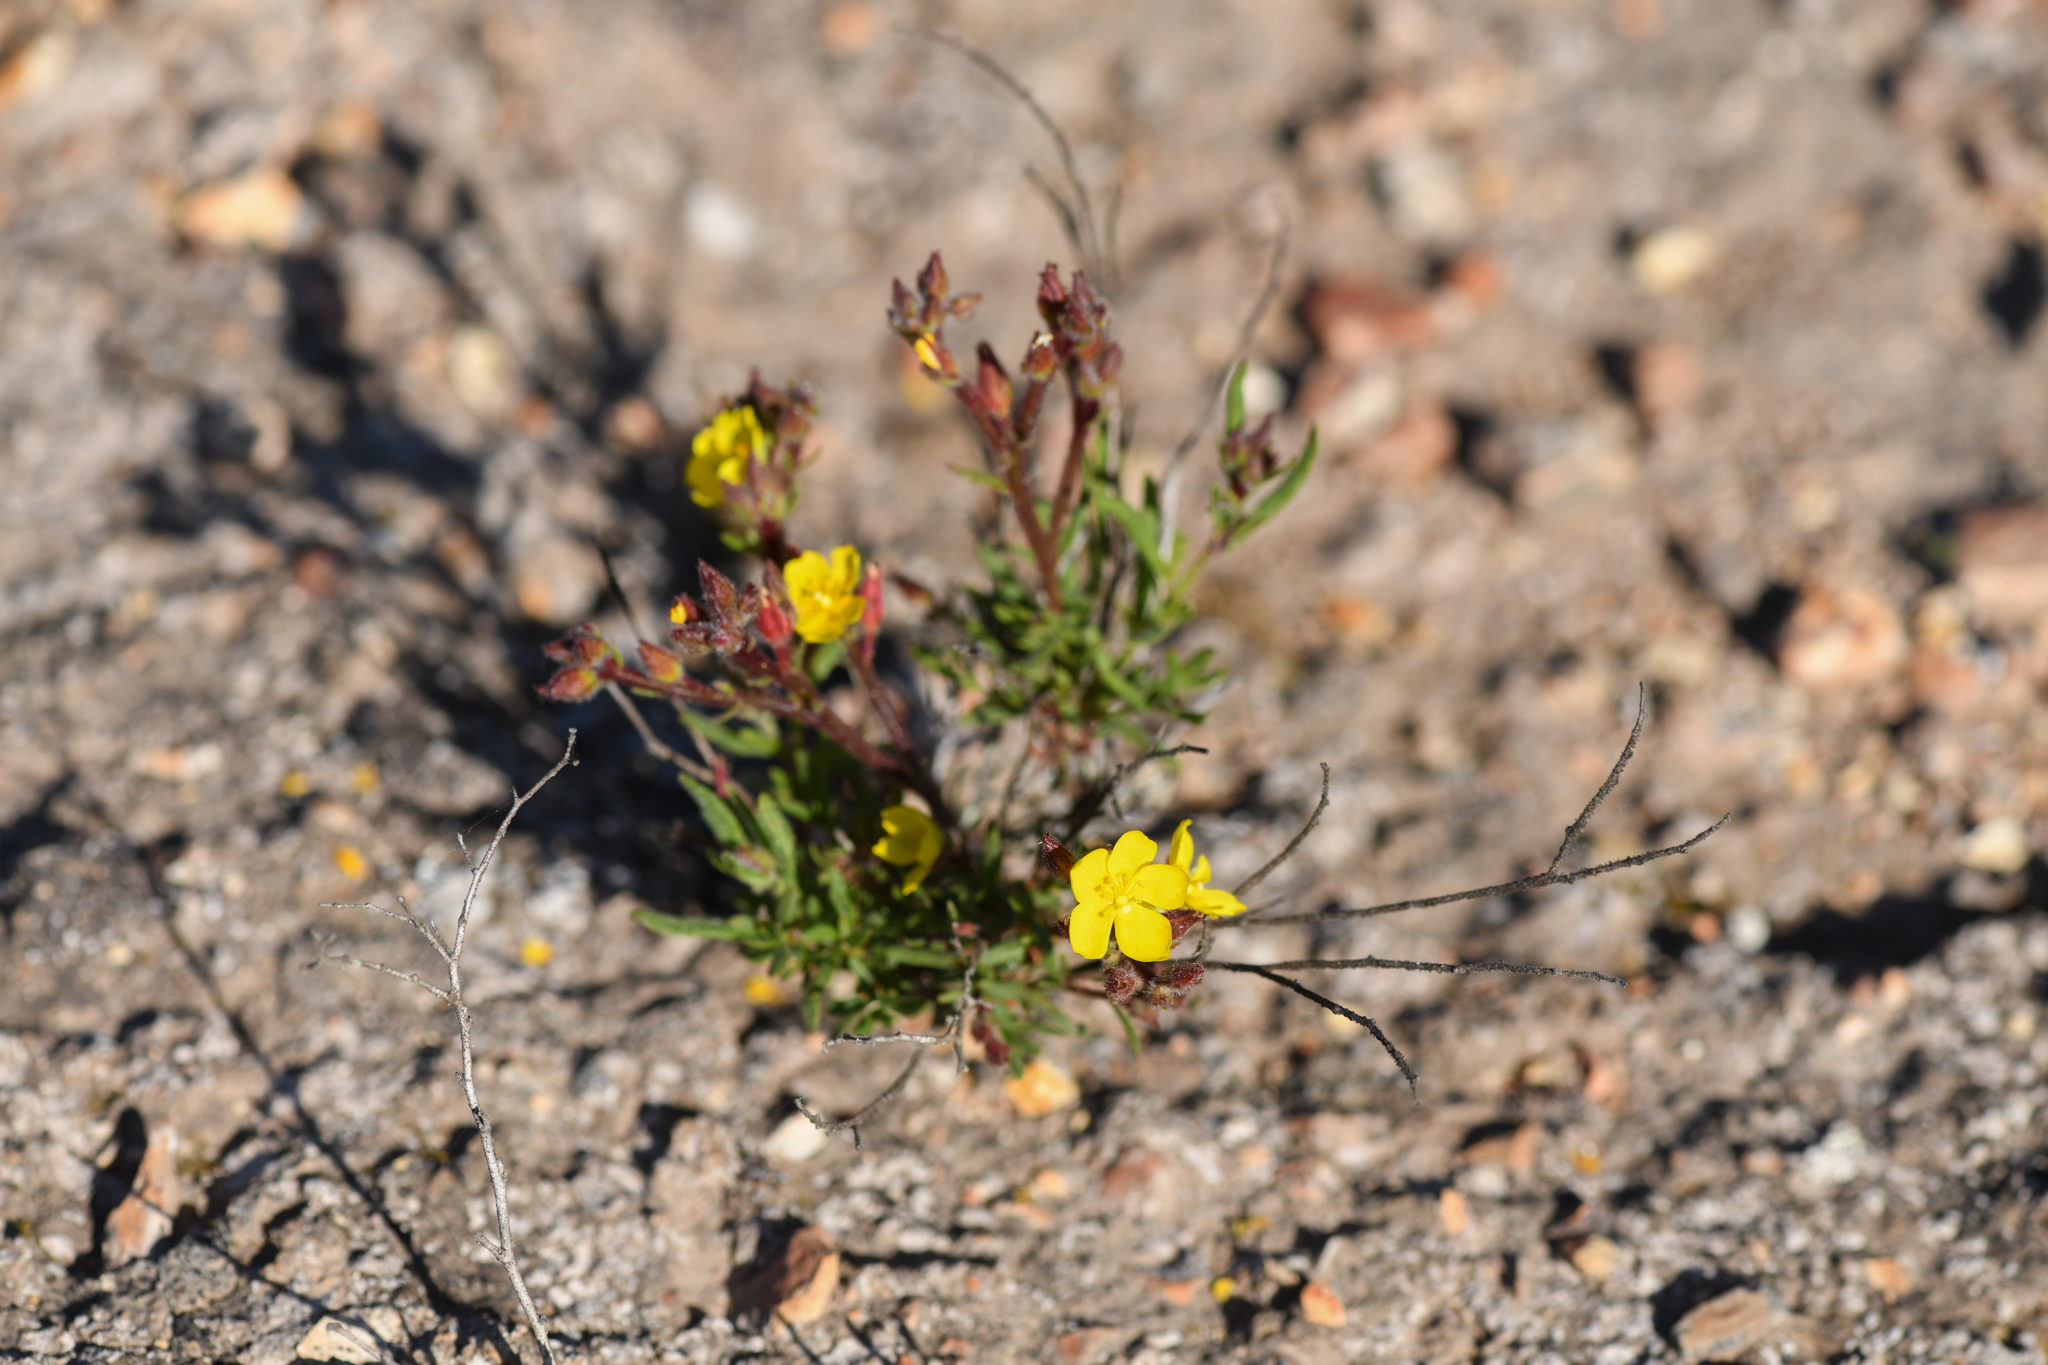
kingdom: Plantae
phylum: Tracheophyta
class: Magnoliopsida
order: Malvales
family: Cistaceae
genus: Crocanthemum
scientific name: Crocanthemum greenei
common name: Island rush-rose
